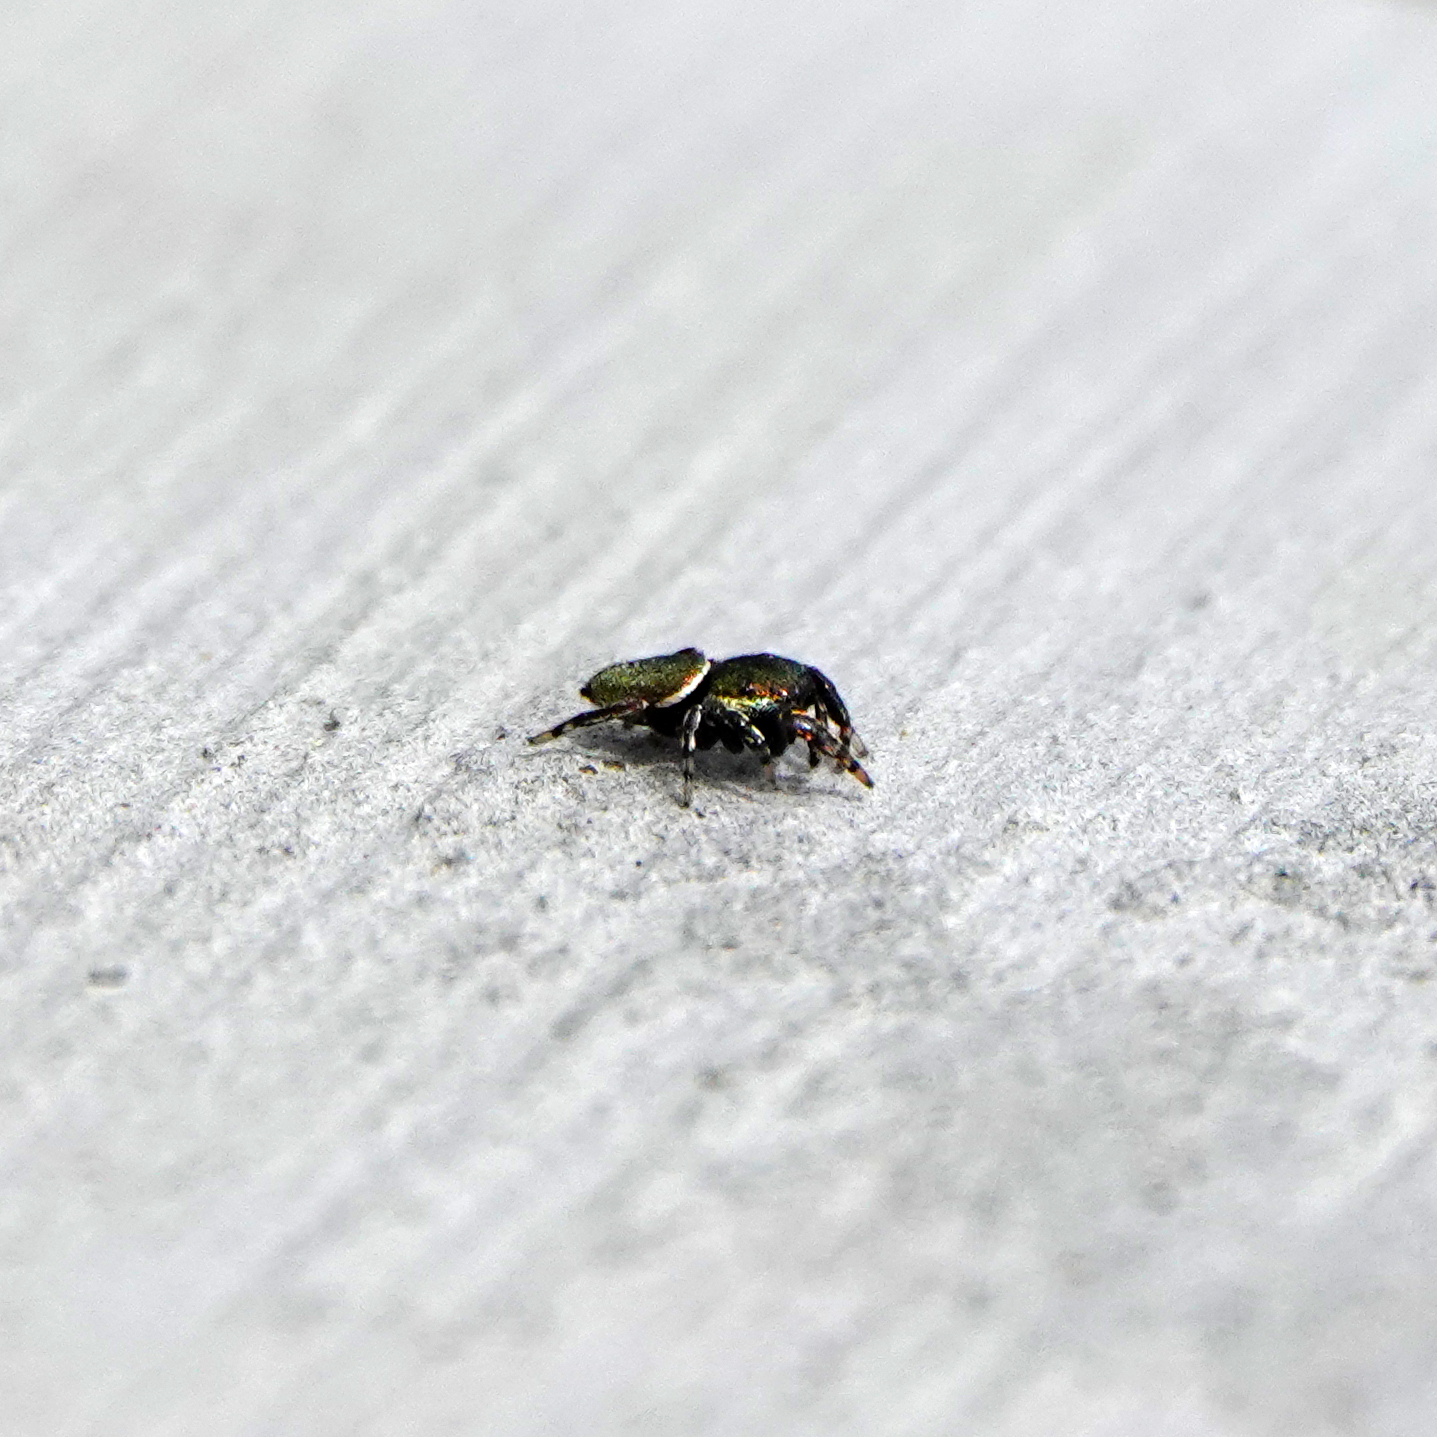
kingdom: Animalia
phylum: Arthropoda
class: Arachnida
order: Araneae
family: Salticidae
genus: Sassacus
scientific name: Sassacus papenhoei
